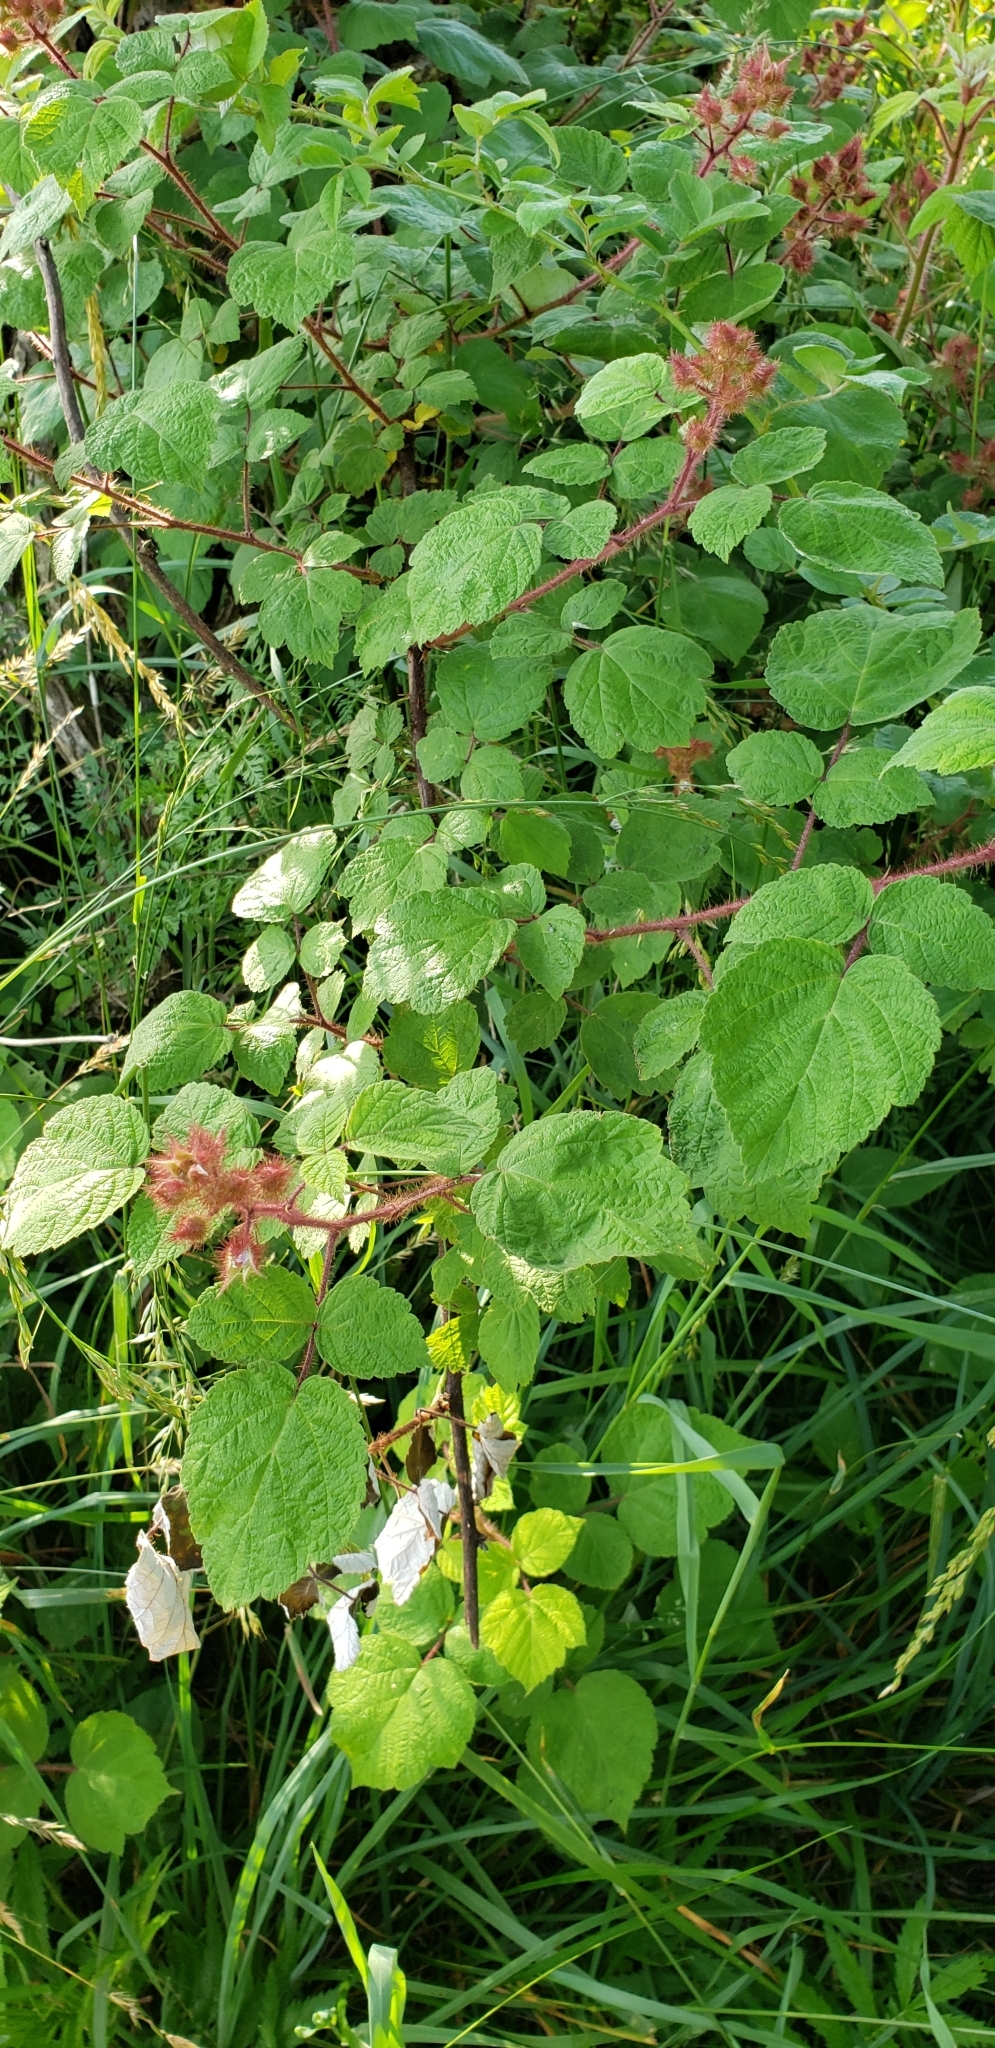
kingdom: Plantae
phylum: Tracheophyta
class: Magnoliopsida
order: Rosales
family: Rosaceae
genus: Rubus
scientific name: Rubus phoenicolasius
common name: Japanese wineberry
